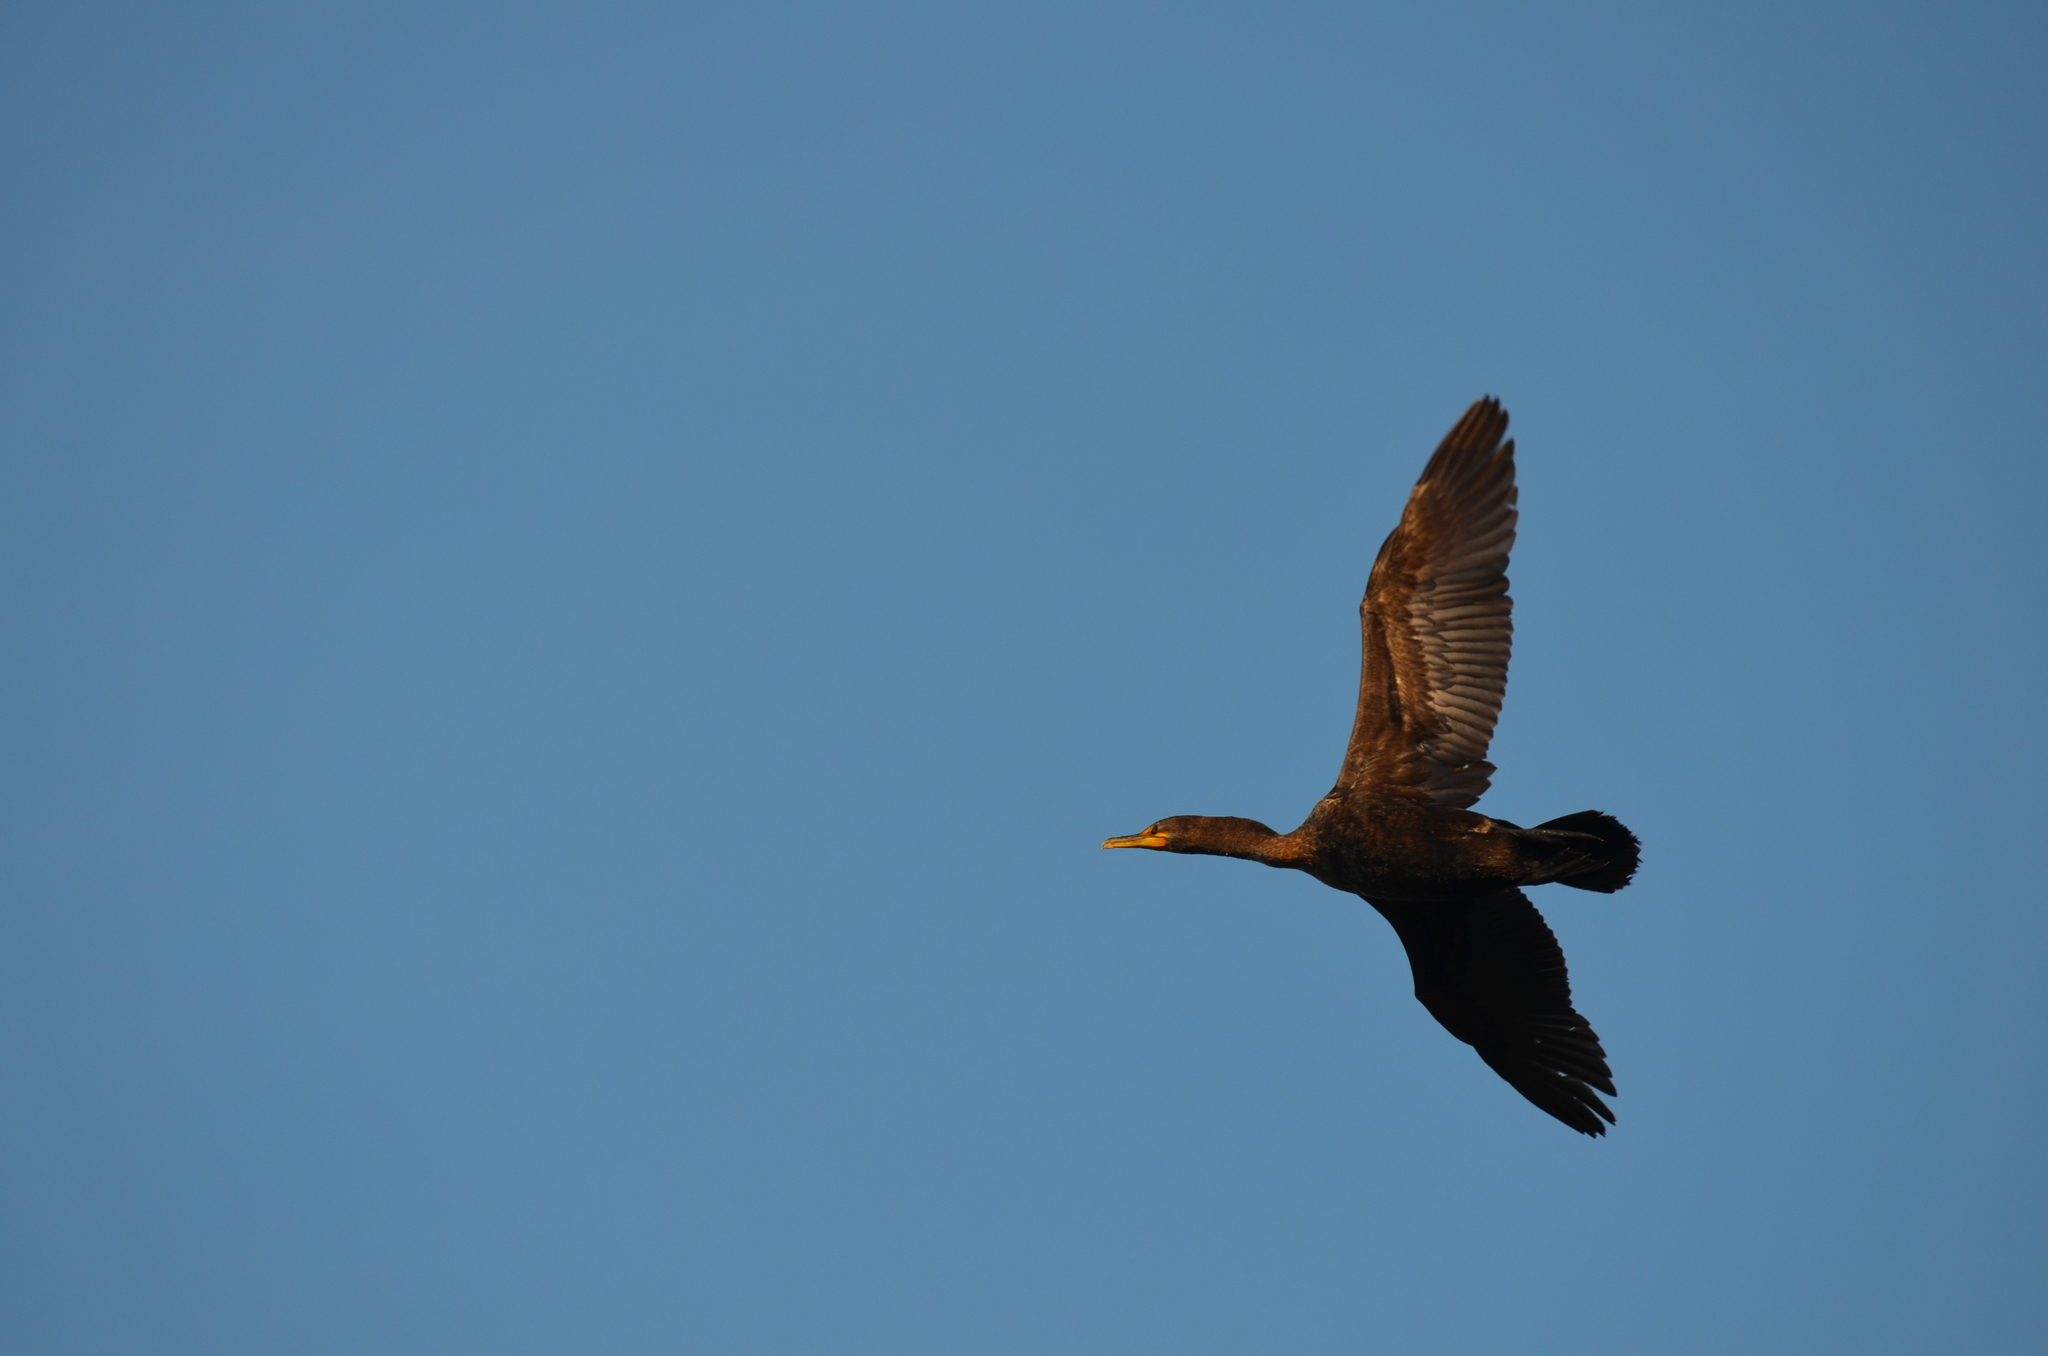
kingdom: Animalia
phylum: Chordata
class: Aves
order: Suliformes
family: Phalacrocoracidae
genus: Phalacrocorax
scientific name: Phalacrocorax auritus
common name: Double-crested cormorant
